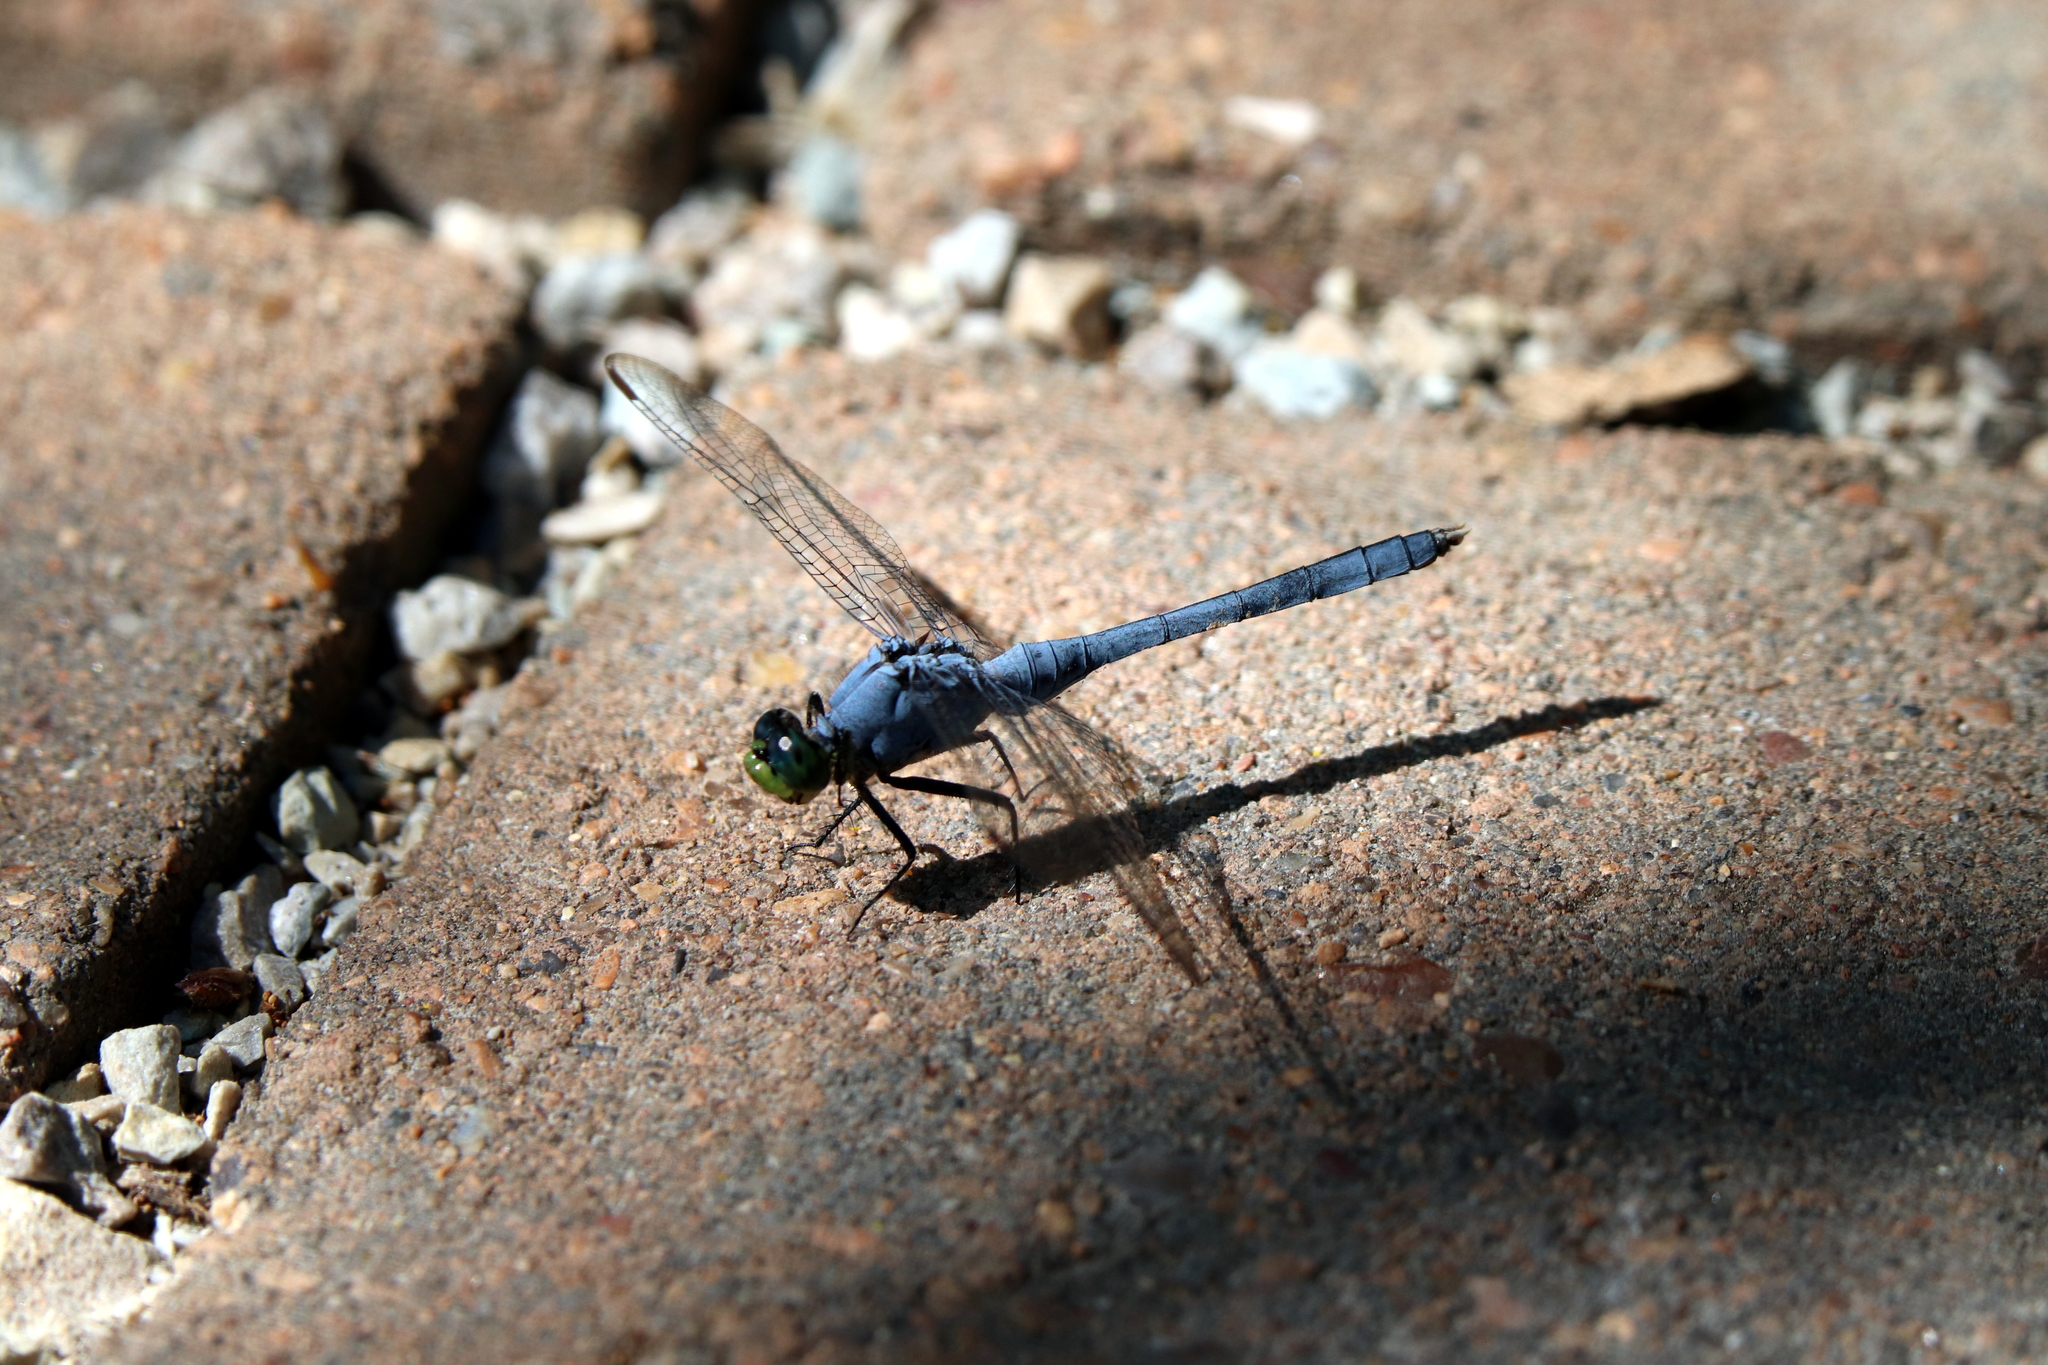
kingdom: Animalia
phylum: Arthropoda
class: Insecta
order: Odonata
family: Libellulidae
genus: Erythemis
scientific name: Erythemis simplicicollis
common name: Eastern pondhawk
